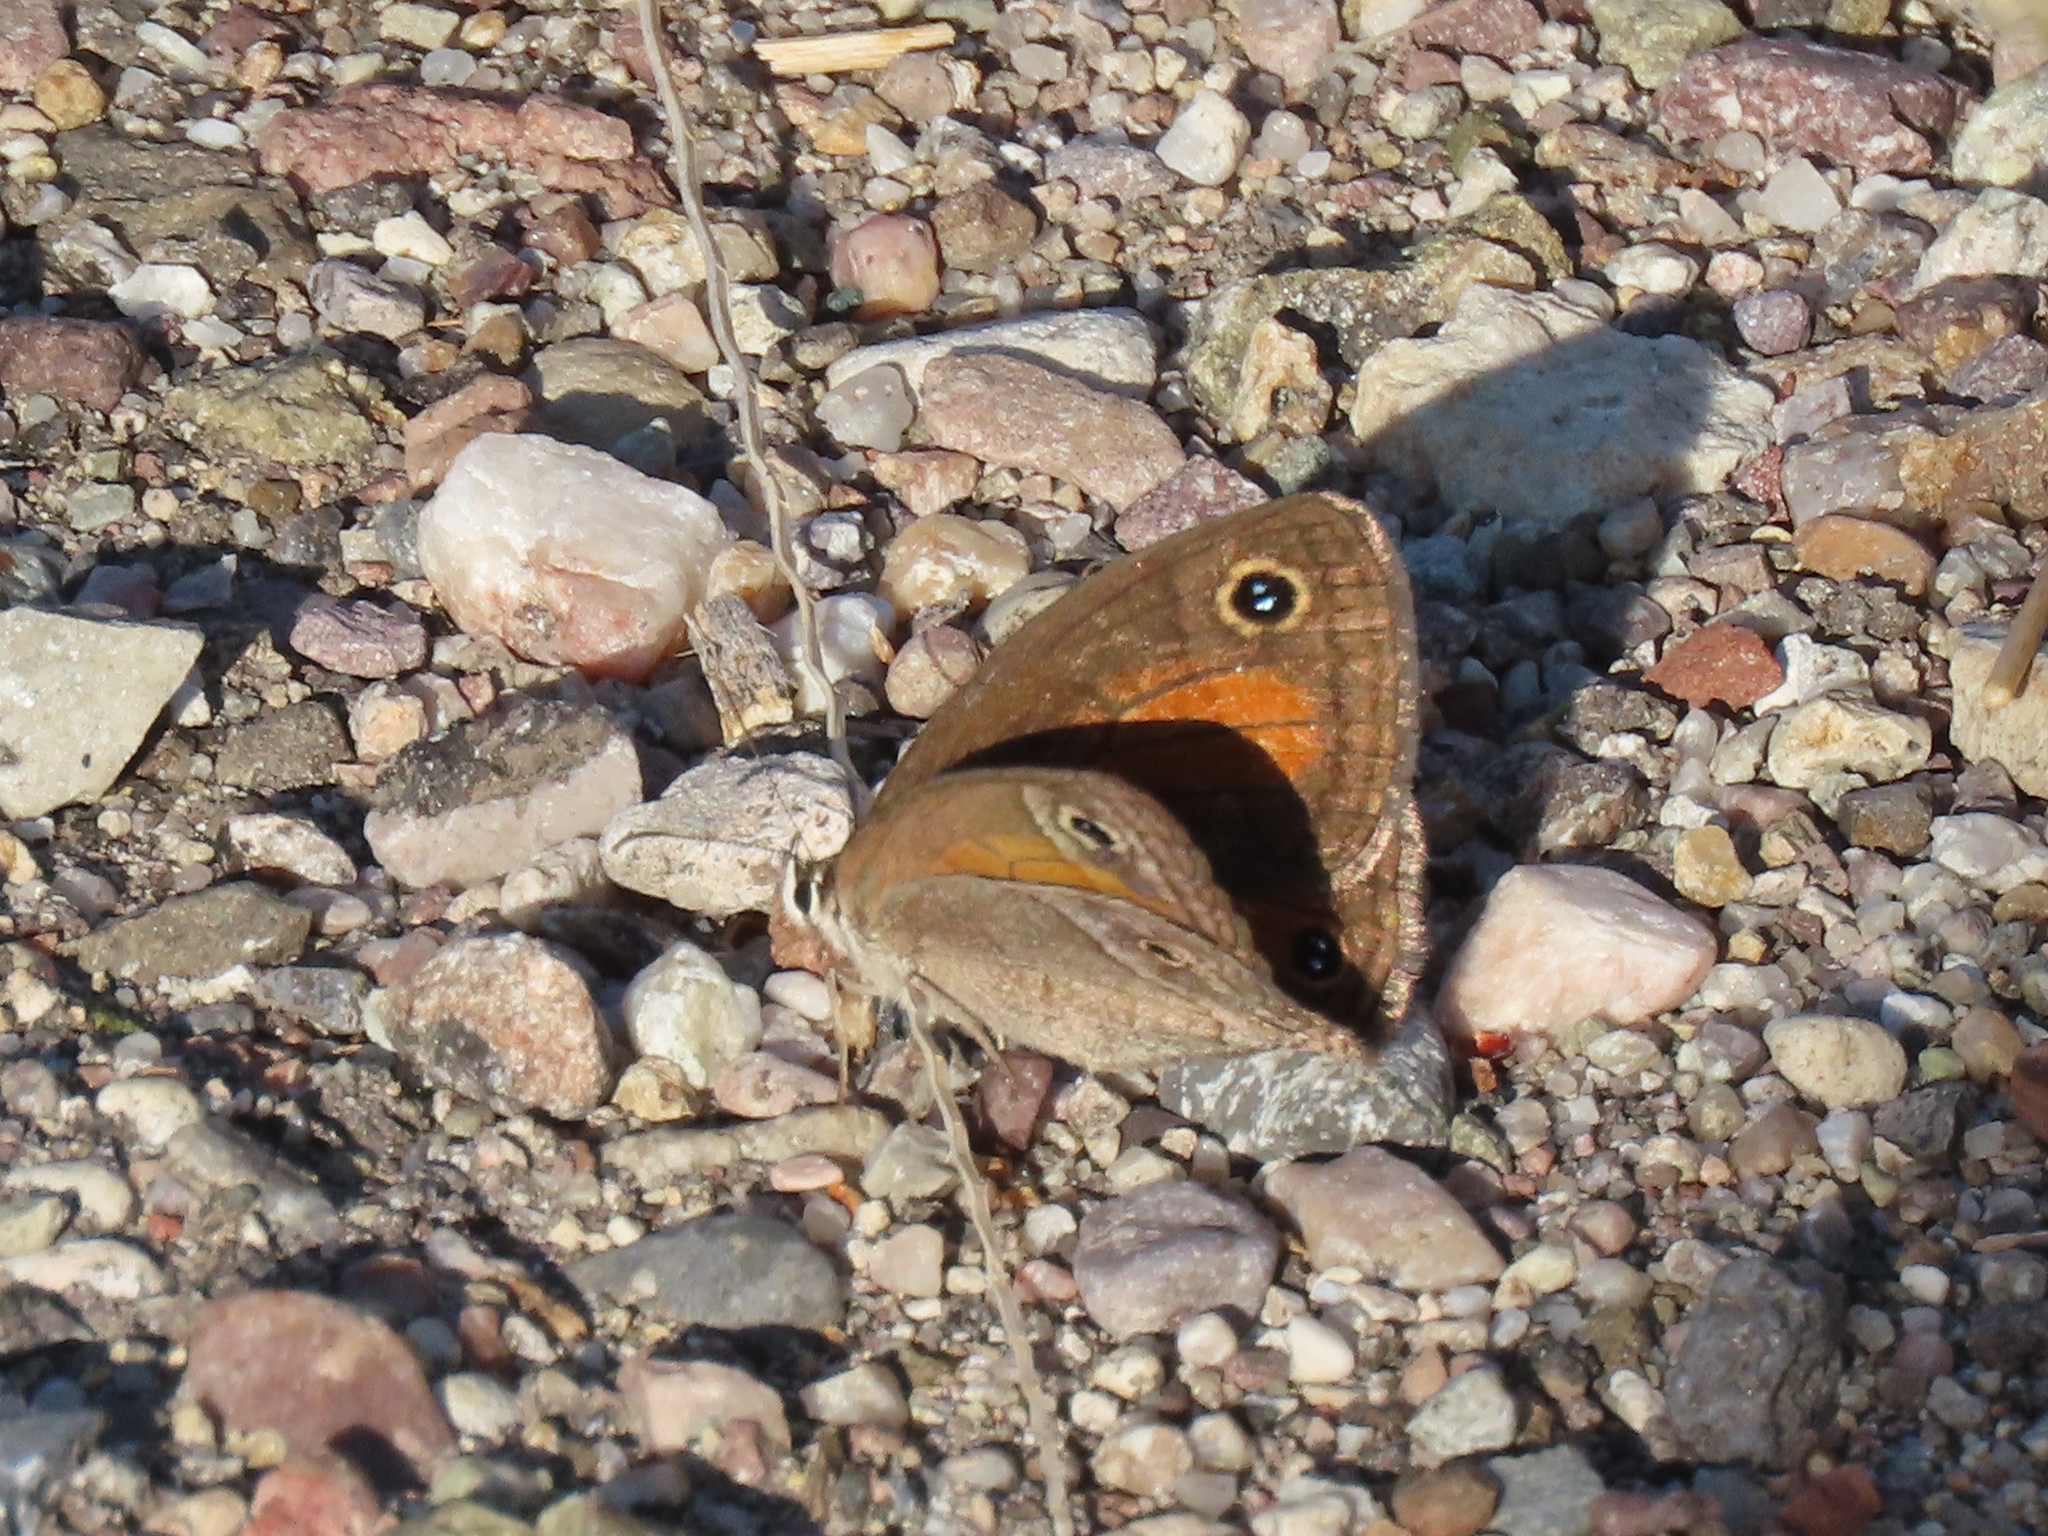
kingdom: Animalia
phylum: Arthropoda
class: Insecta
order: Lepidoptera
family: Nymphalidae
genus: Euptychia
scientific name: Euptychia
